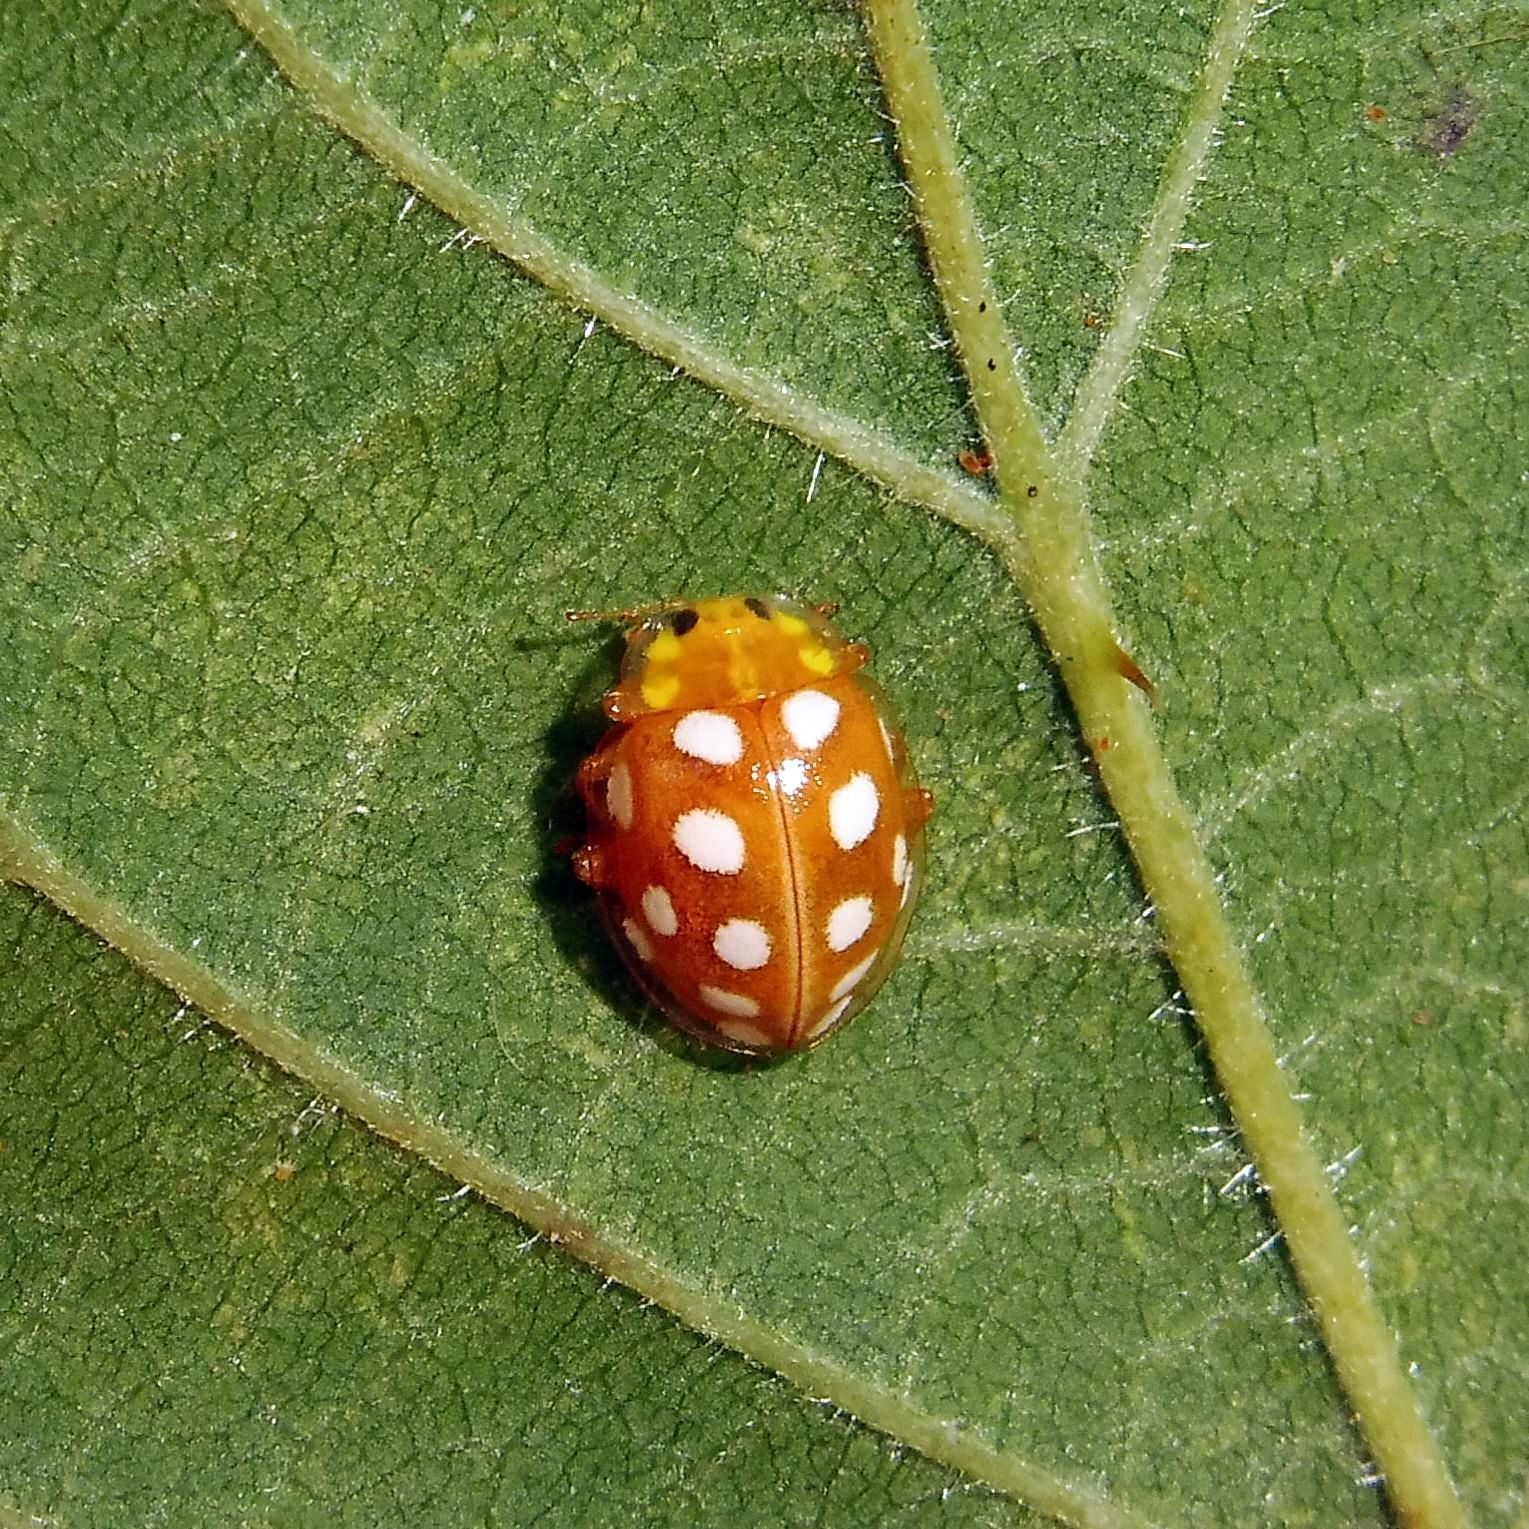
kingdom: Animalia
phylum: Arthropoda
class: Insecta
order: Coleoptera
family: Coccinellidae
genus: Halyzia
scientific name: Halyzia sedecimguttata
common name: Orange ladybird
